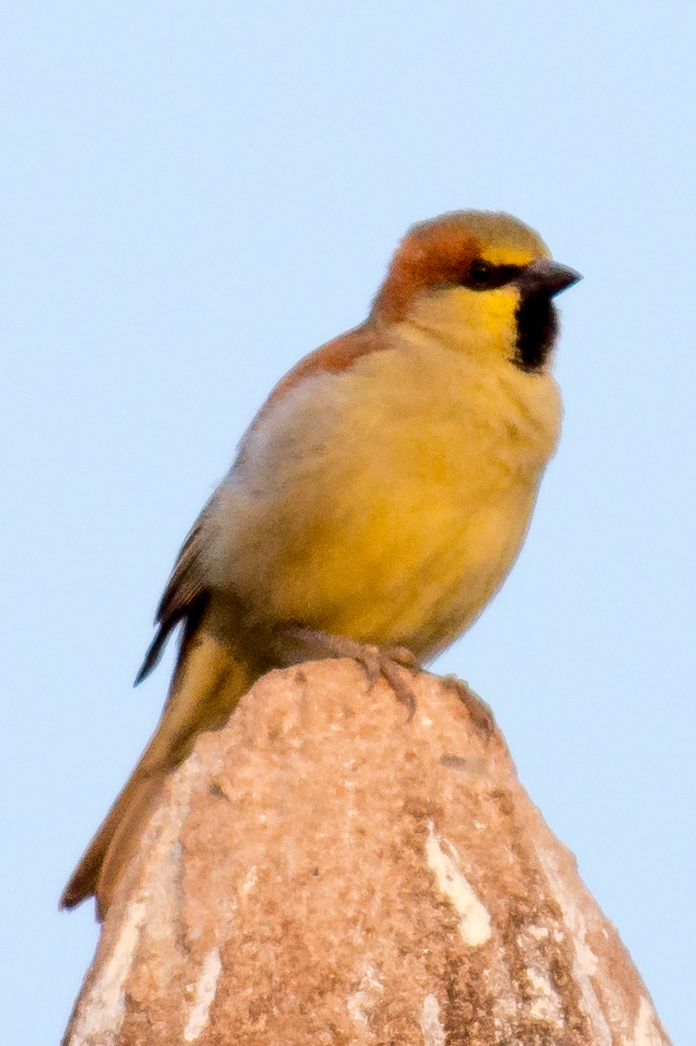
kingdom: Animalia
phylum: Chordata
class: Aves
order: Passeriformes
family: Passeridae
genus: Passer
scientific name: Passer flaveolus
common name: Plain-backed sparrow
